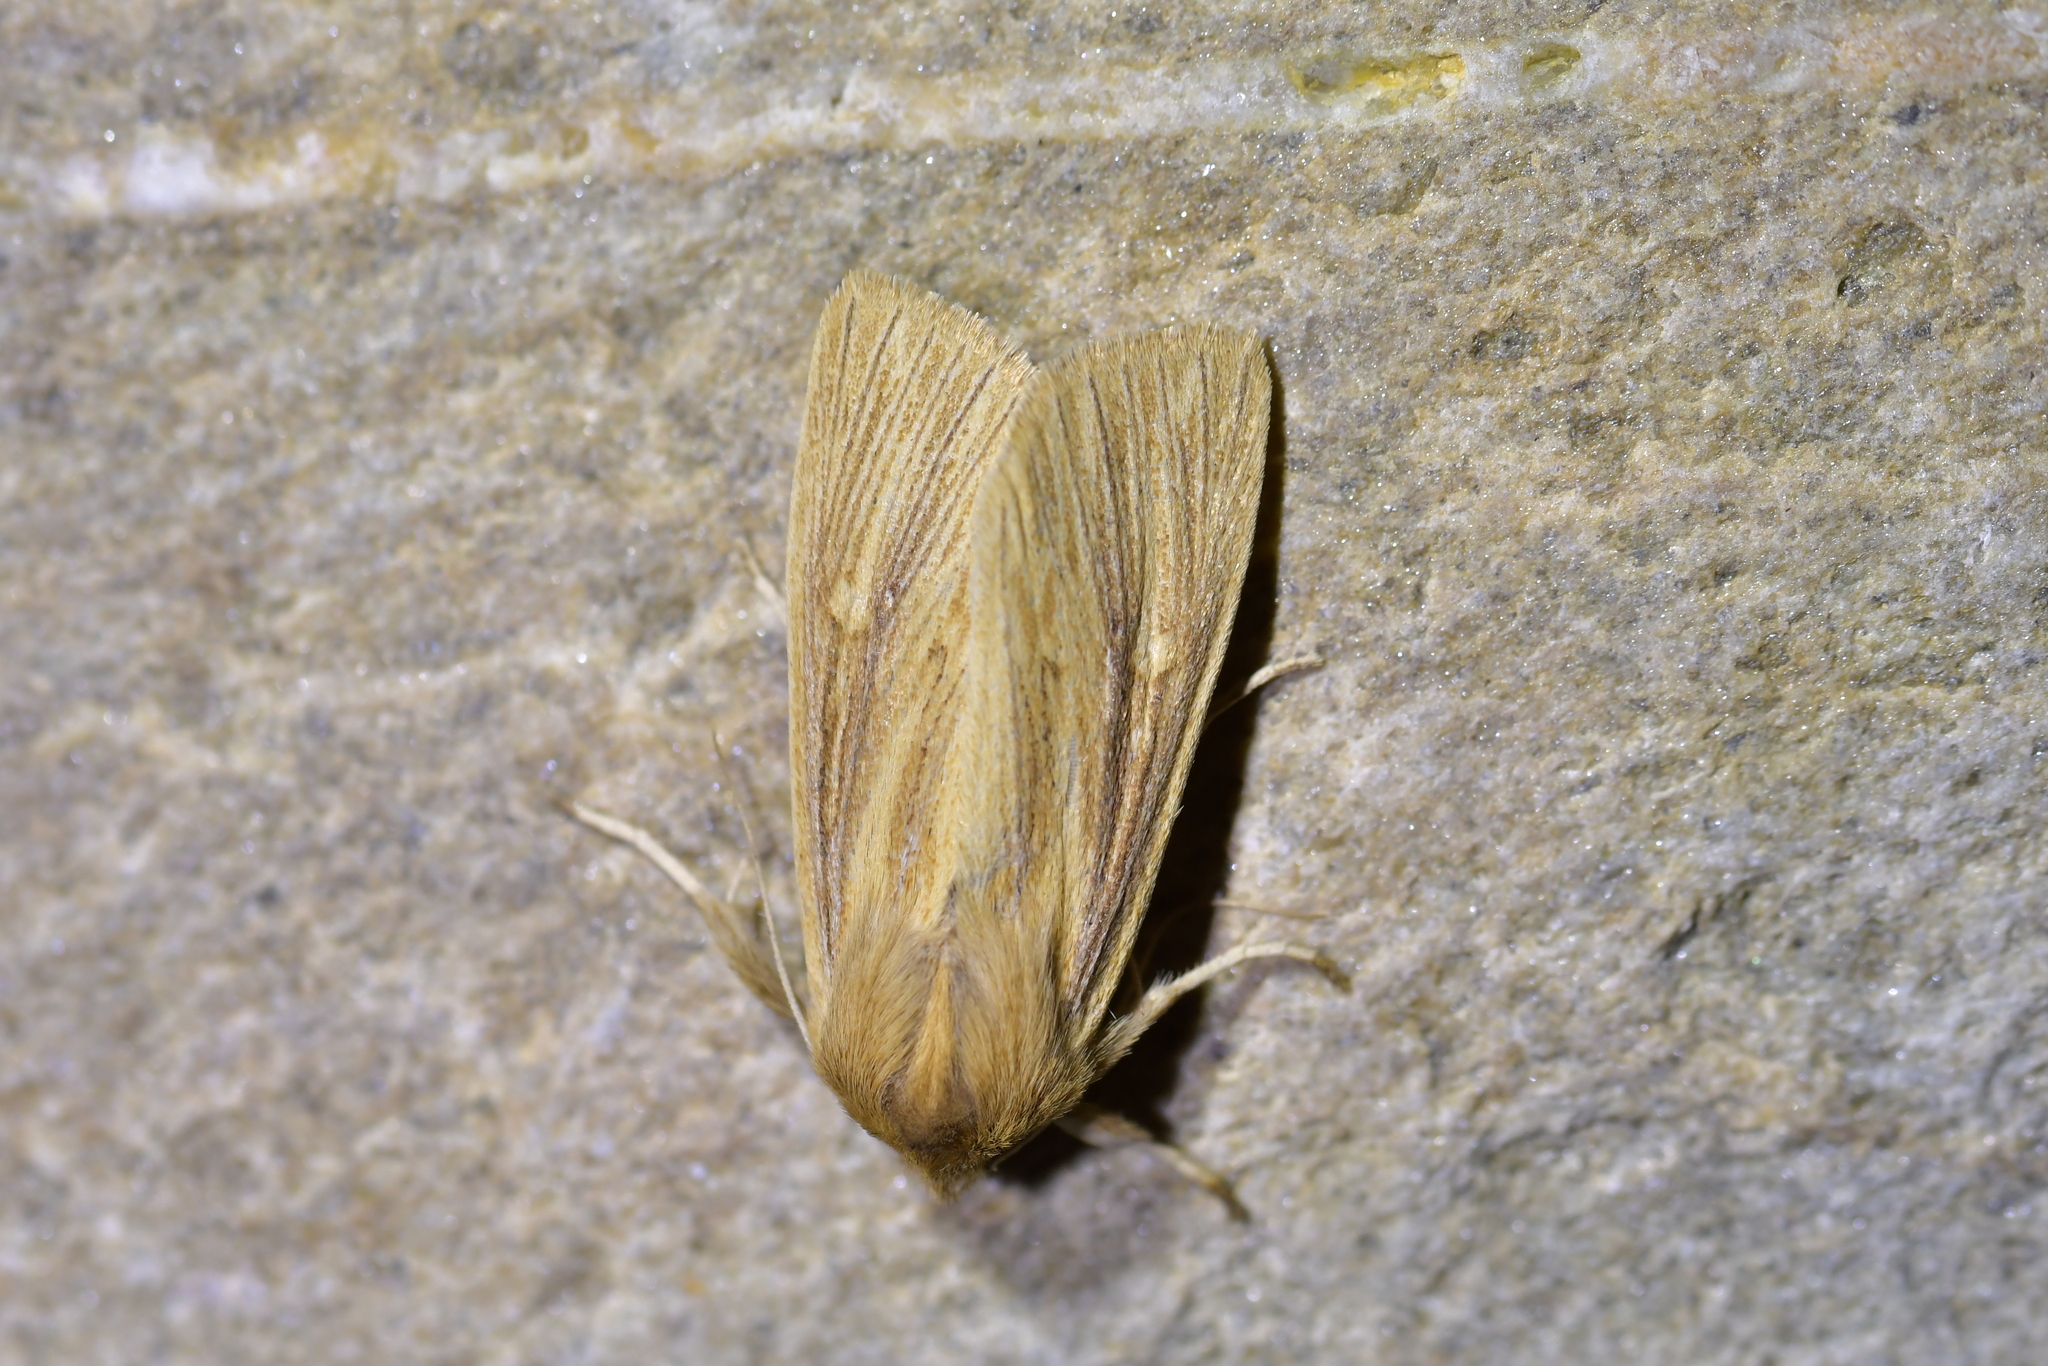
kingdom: Animalia
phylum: Arthropoda
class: Insecta
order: Lepidoptera
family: Noctuidae
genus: Ichneutica
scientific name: Ichneutica arotis
